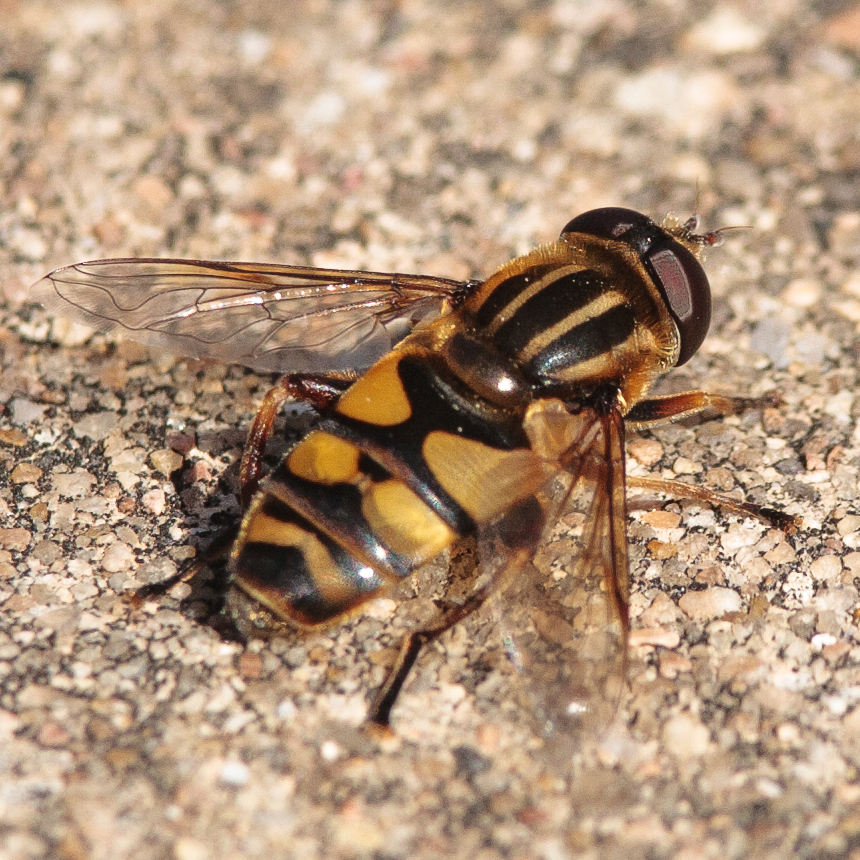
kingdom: Animalia
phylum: Arthropoda
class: Insecta
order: Diptera
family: Syrphidae
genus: Helophilus
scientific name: Helophilus fasciatus
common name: Narrow-headed marsh fly
